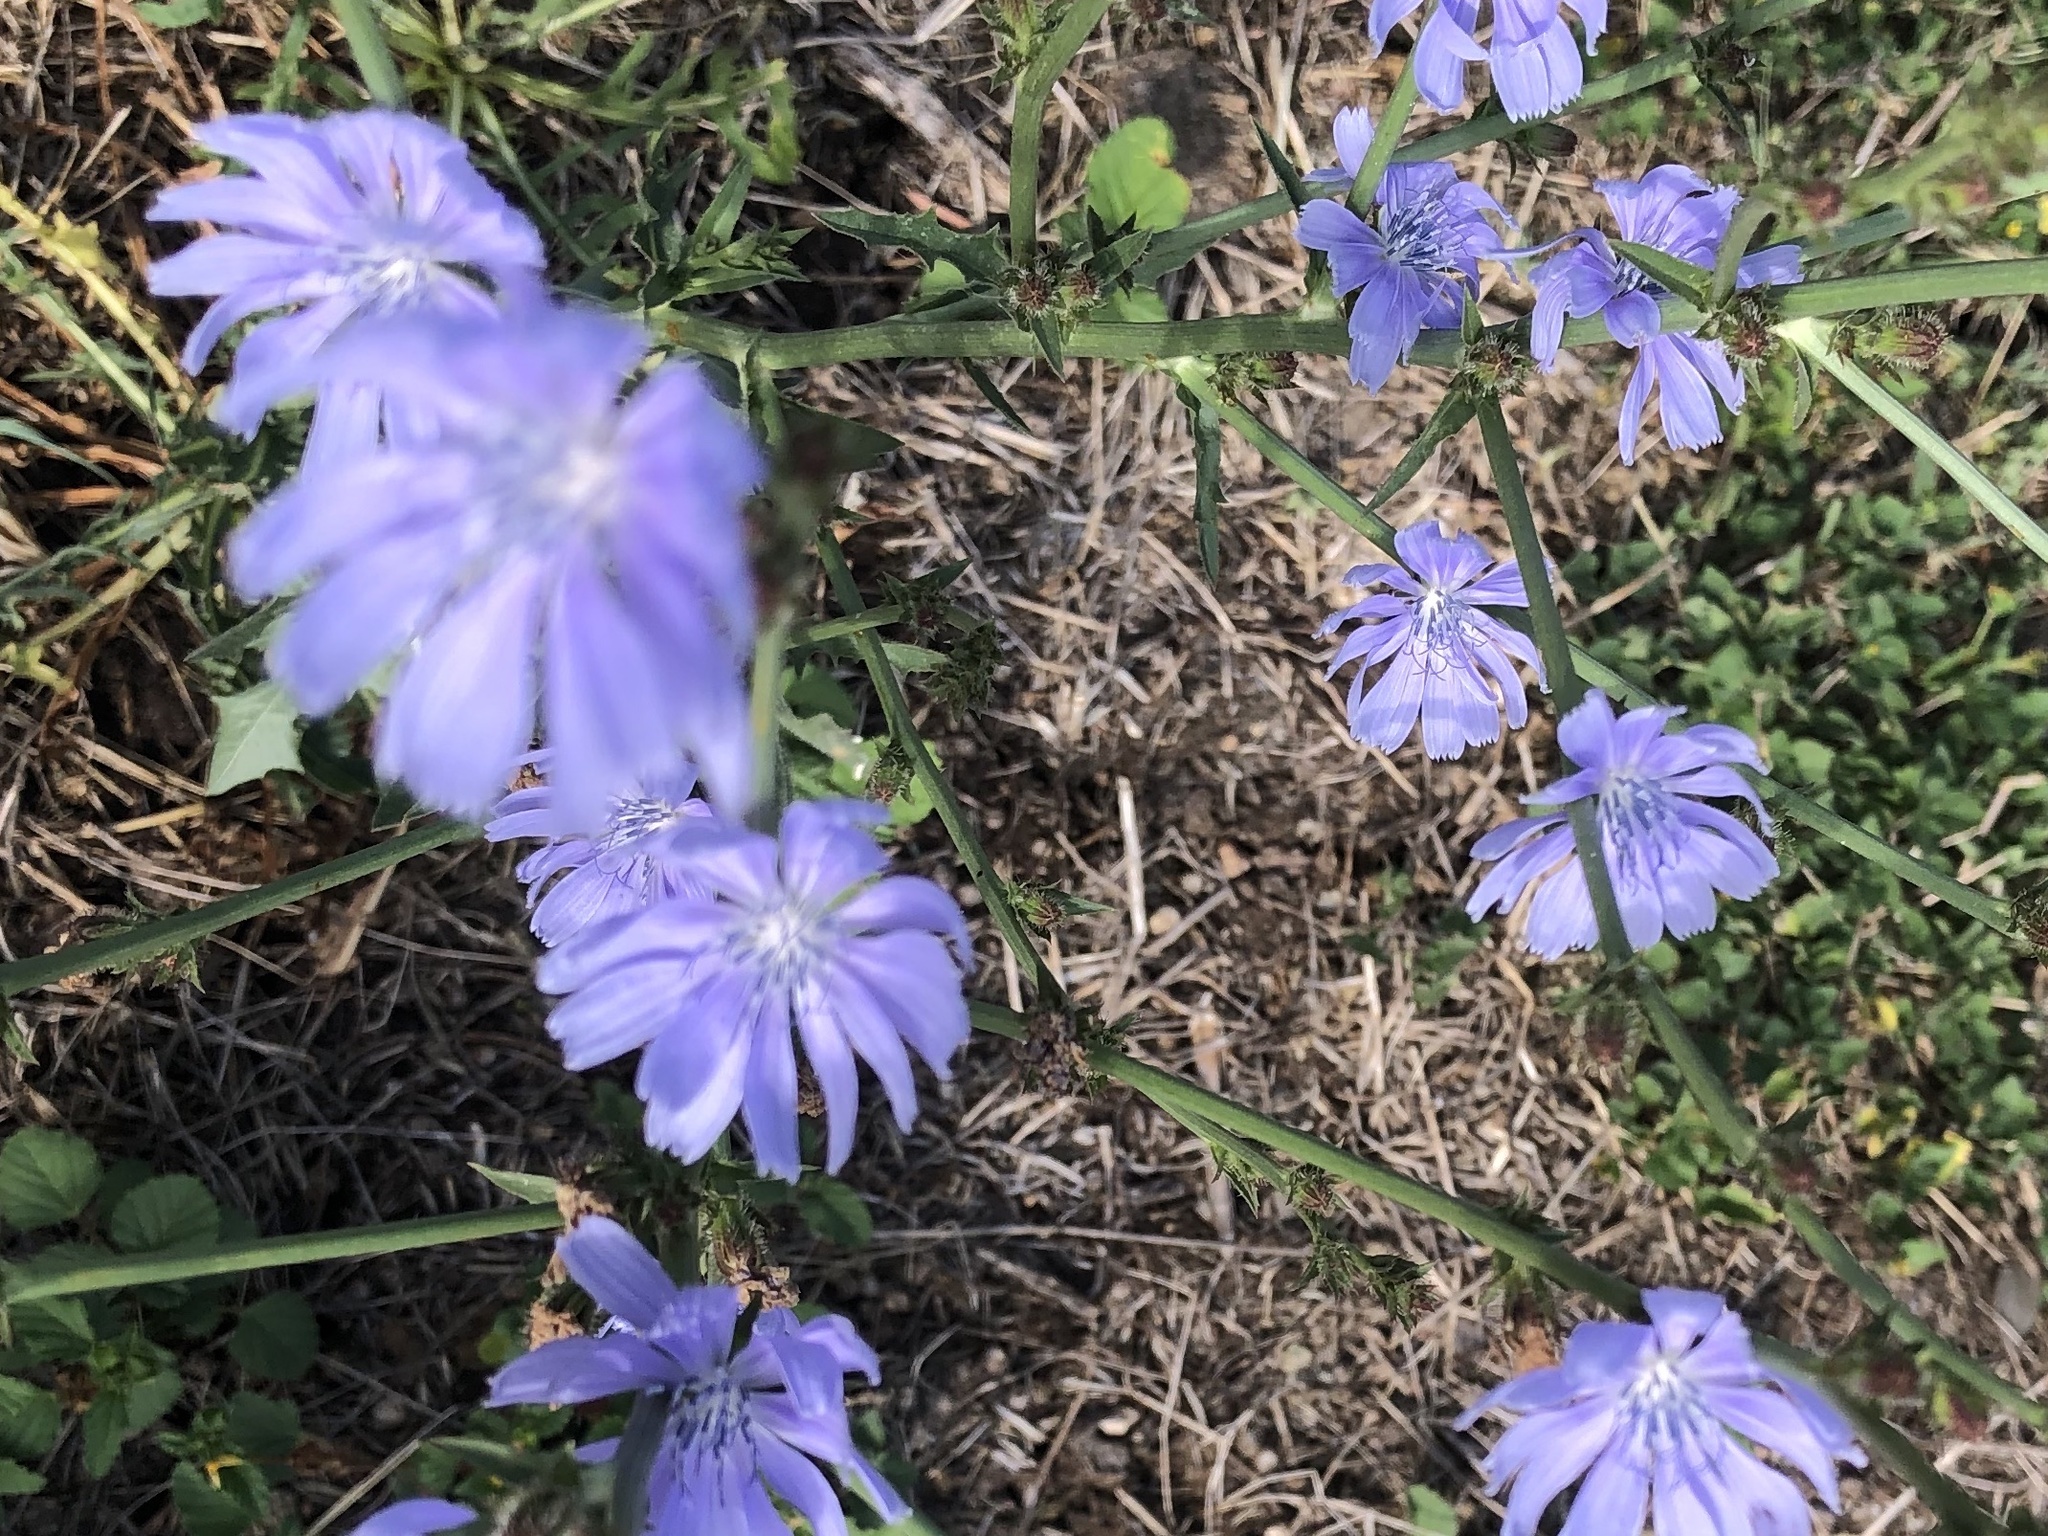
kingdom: Plantae
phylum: Tracheophyta
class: Magnoliopsida
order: Asterales
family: Asteraceae
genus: Lygodesmia
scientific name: Lygodesmia texana
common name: Texas skeleton-plant
